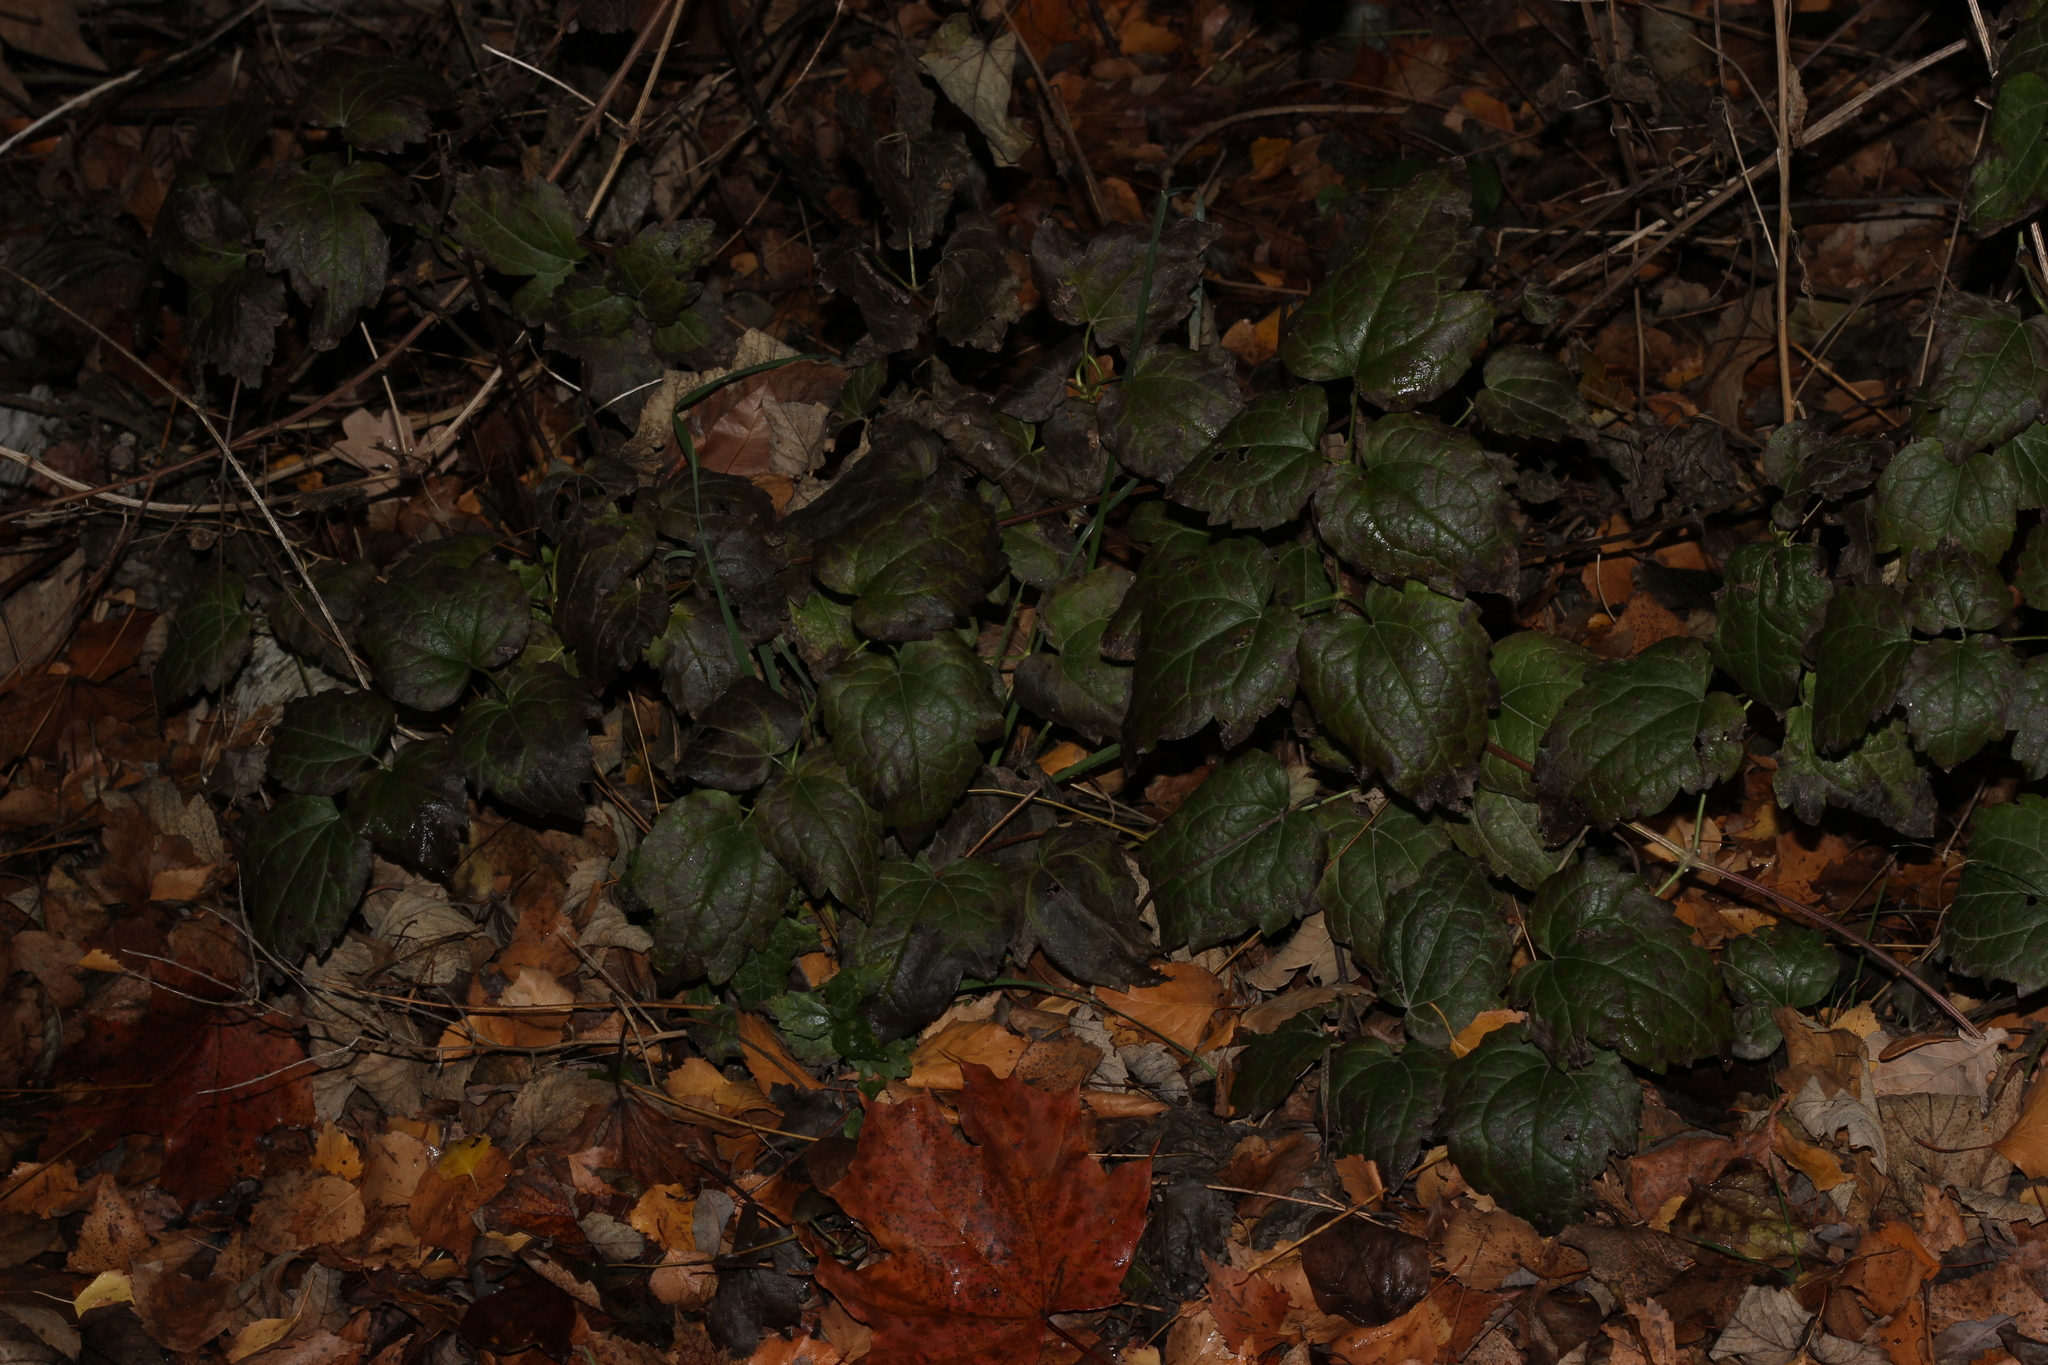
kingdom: Plantae
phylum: Tracheophyta
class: Magnoliopsida
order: Ranunculales
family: Ranunculaceae
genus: Clematis
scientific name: Clematis vitalba
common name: Evergreen clematis
